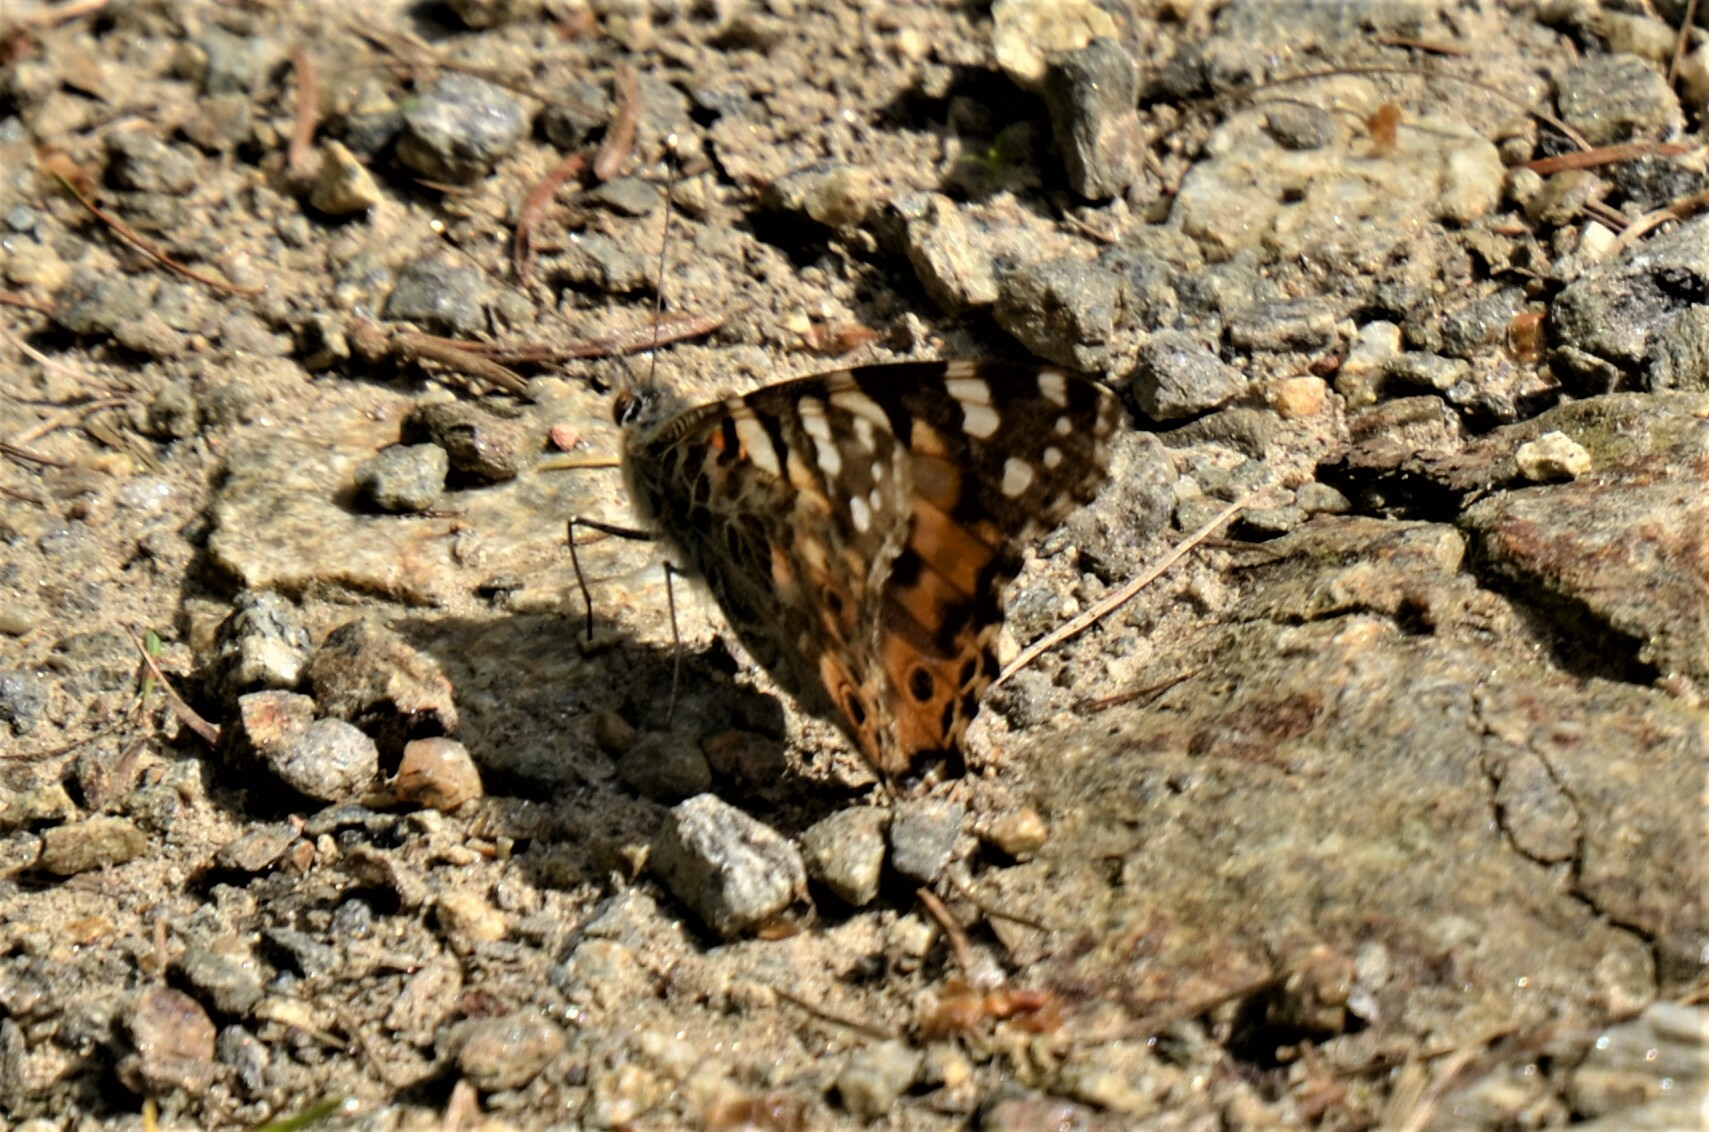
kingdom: Animalia
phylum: Arthropoda
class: Insecta
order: Lepidoptera
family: Nymphalidae
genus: Vanessa
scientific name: Vanessa cardui
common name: Painted lady
